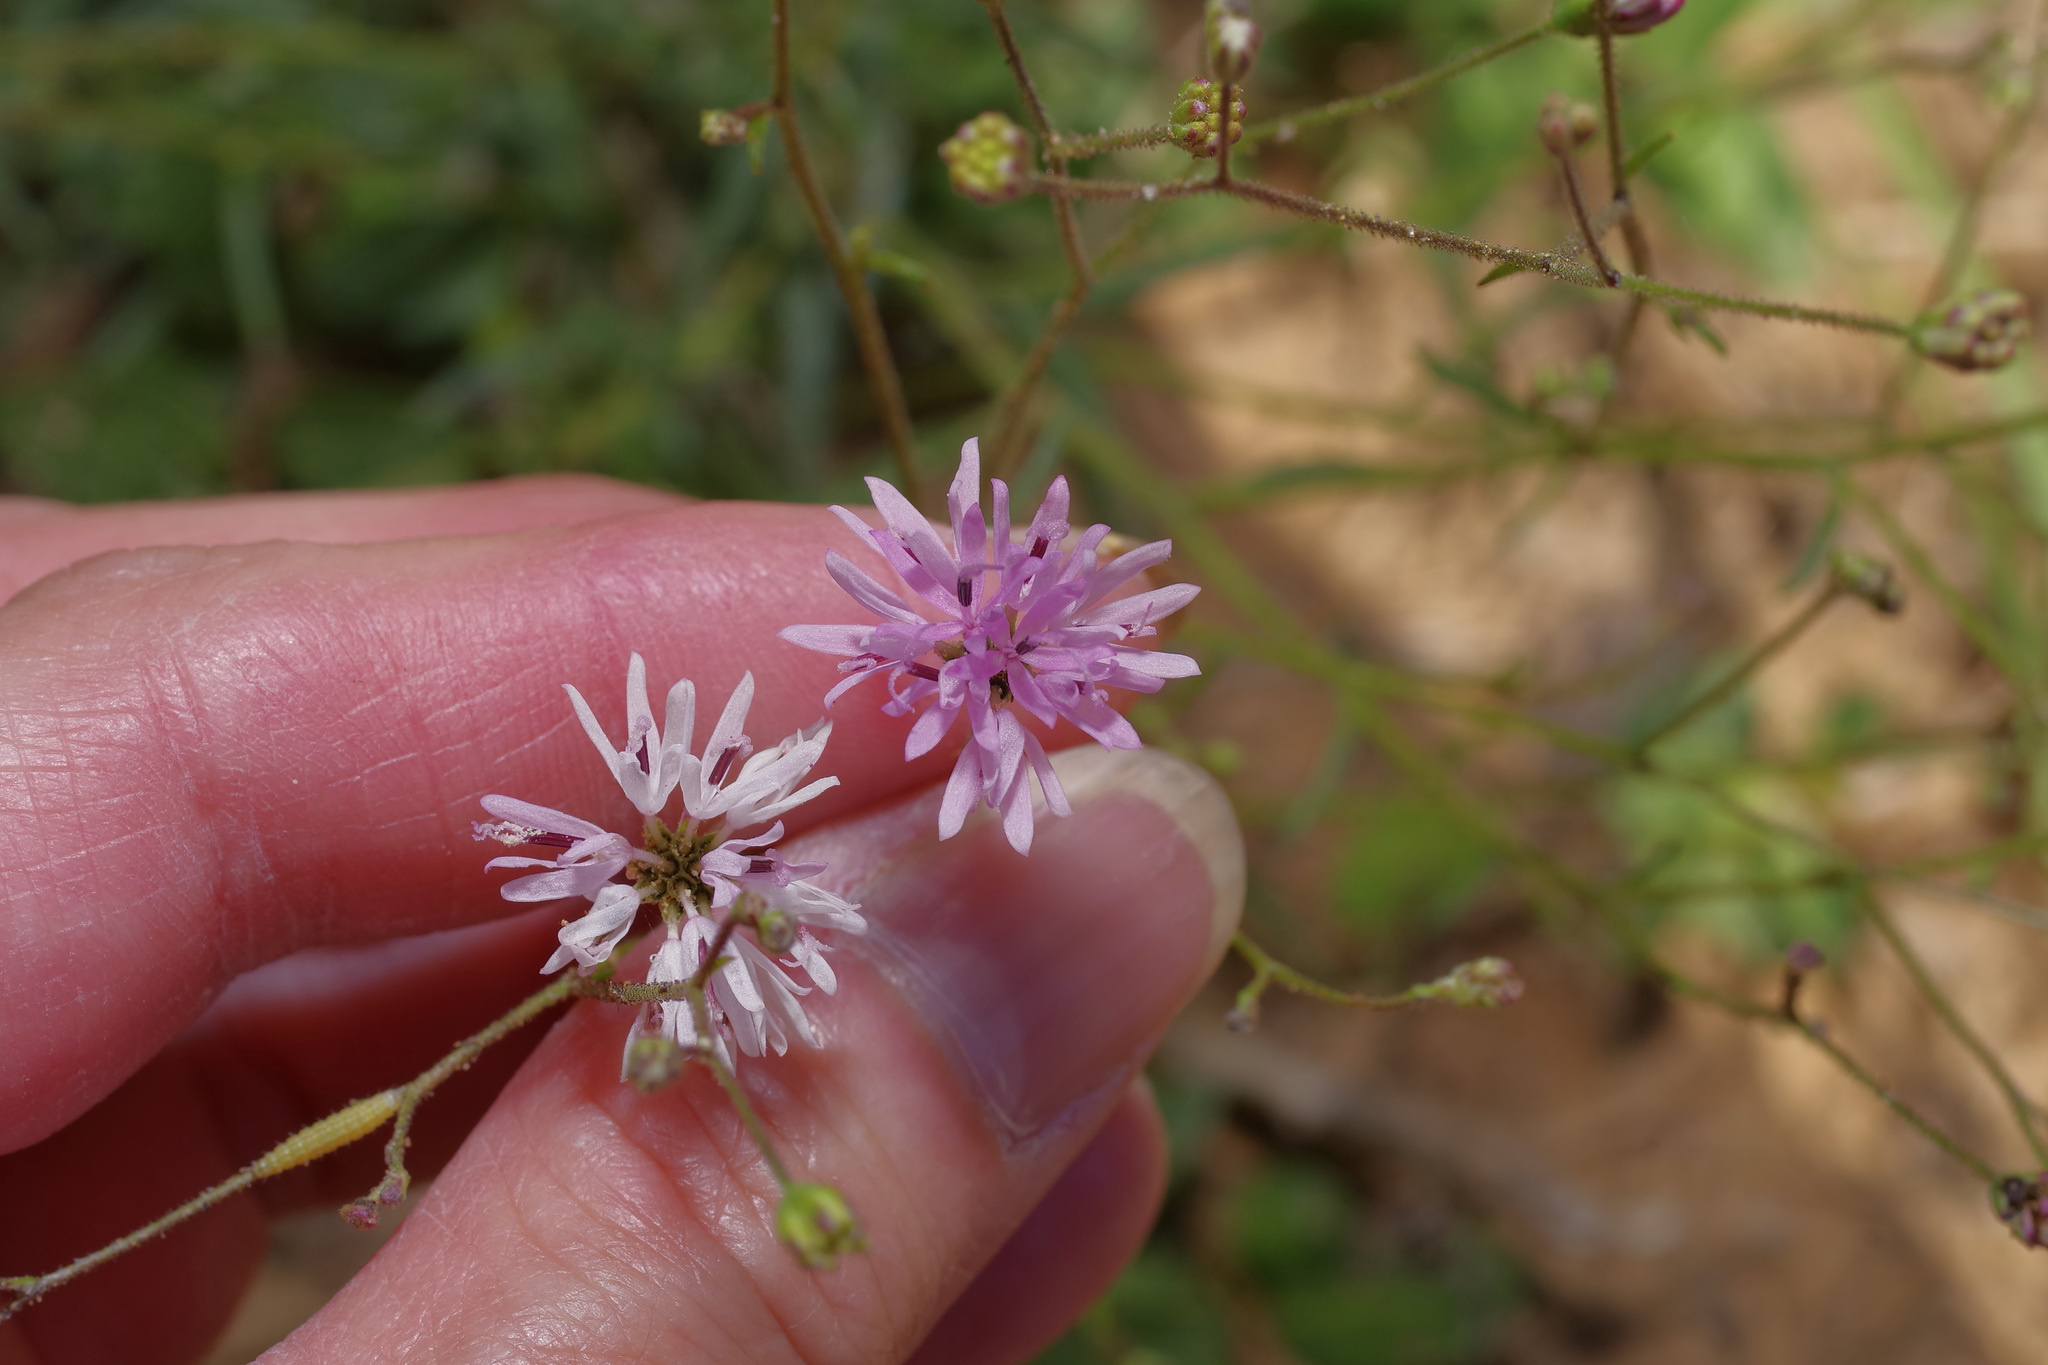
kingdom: Plantae
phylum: Tracheophyta
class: Magnoliopsida
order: Asterales
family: Asteraceae
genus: Palafoxia
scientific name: Palafoxia callosa
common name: Small palafox
